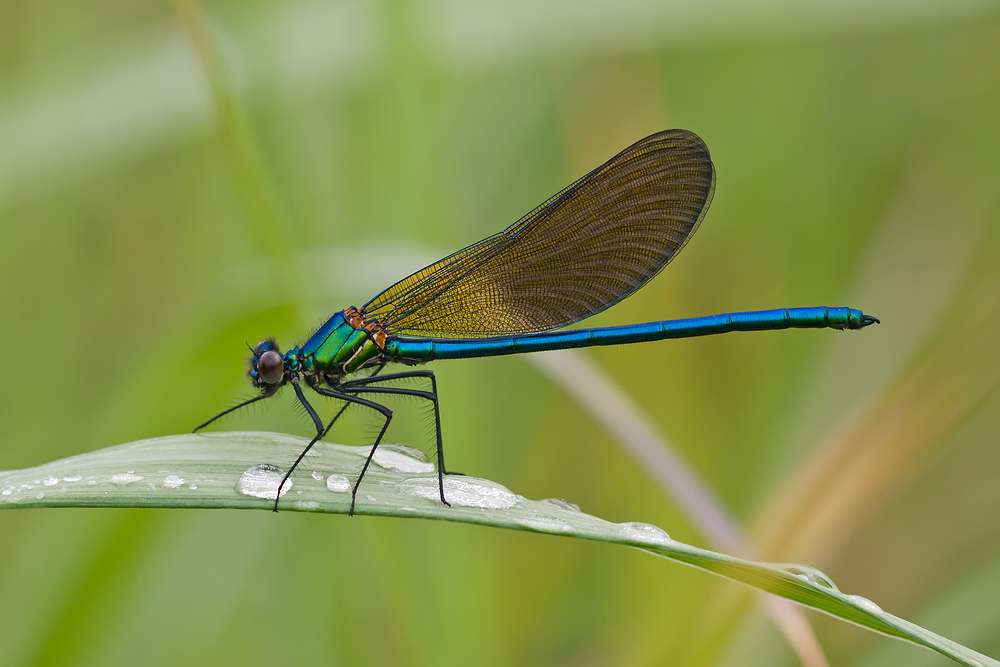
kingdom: Animalia
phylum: Arthropoda
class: Insecta
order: Odonata
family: Calopterygidae
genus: Calopteryx
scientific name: Calopteryx xanthostoma
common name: Western demoiselle
